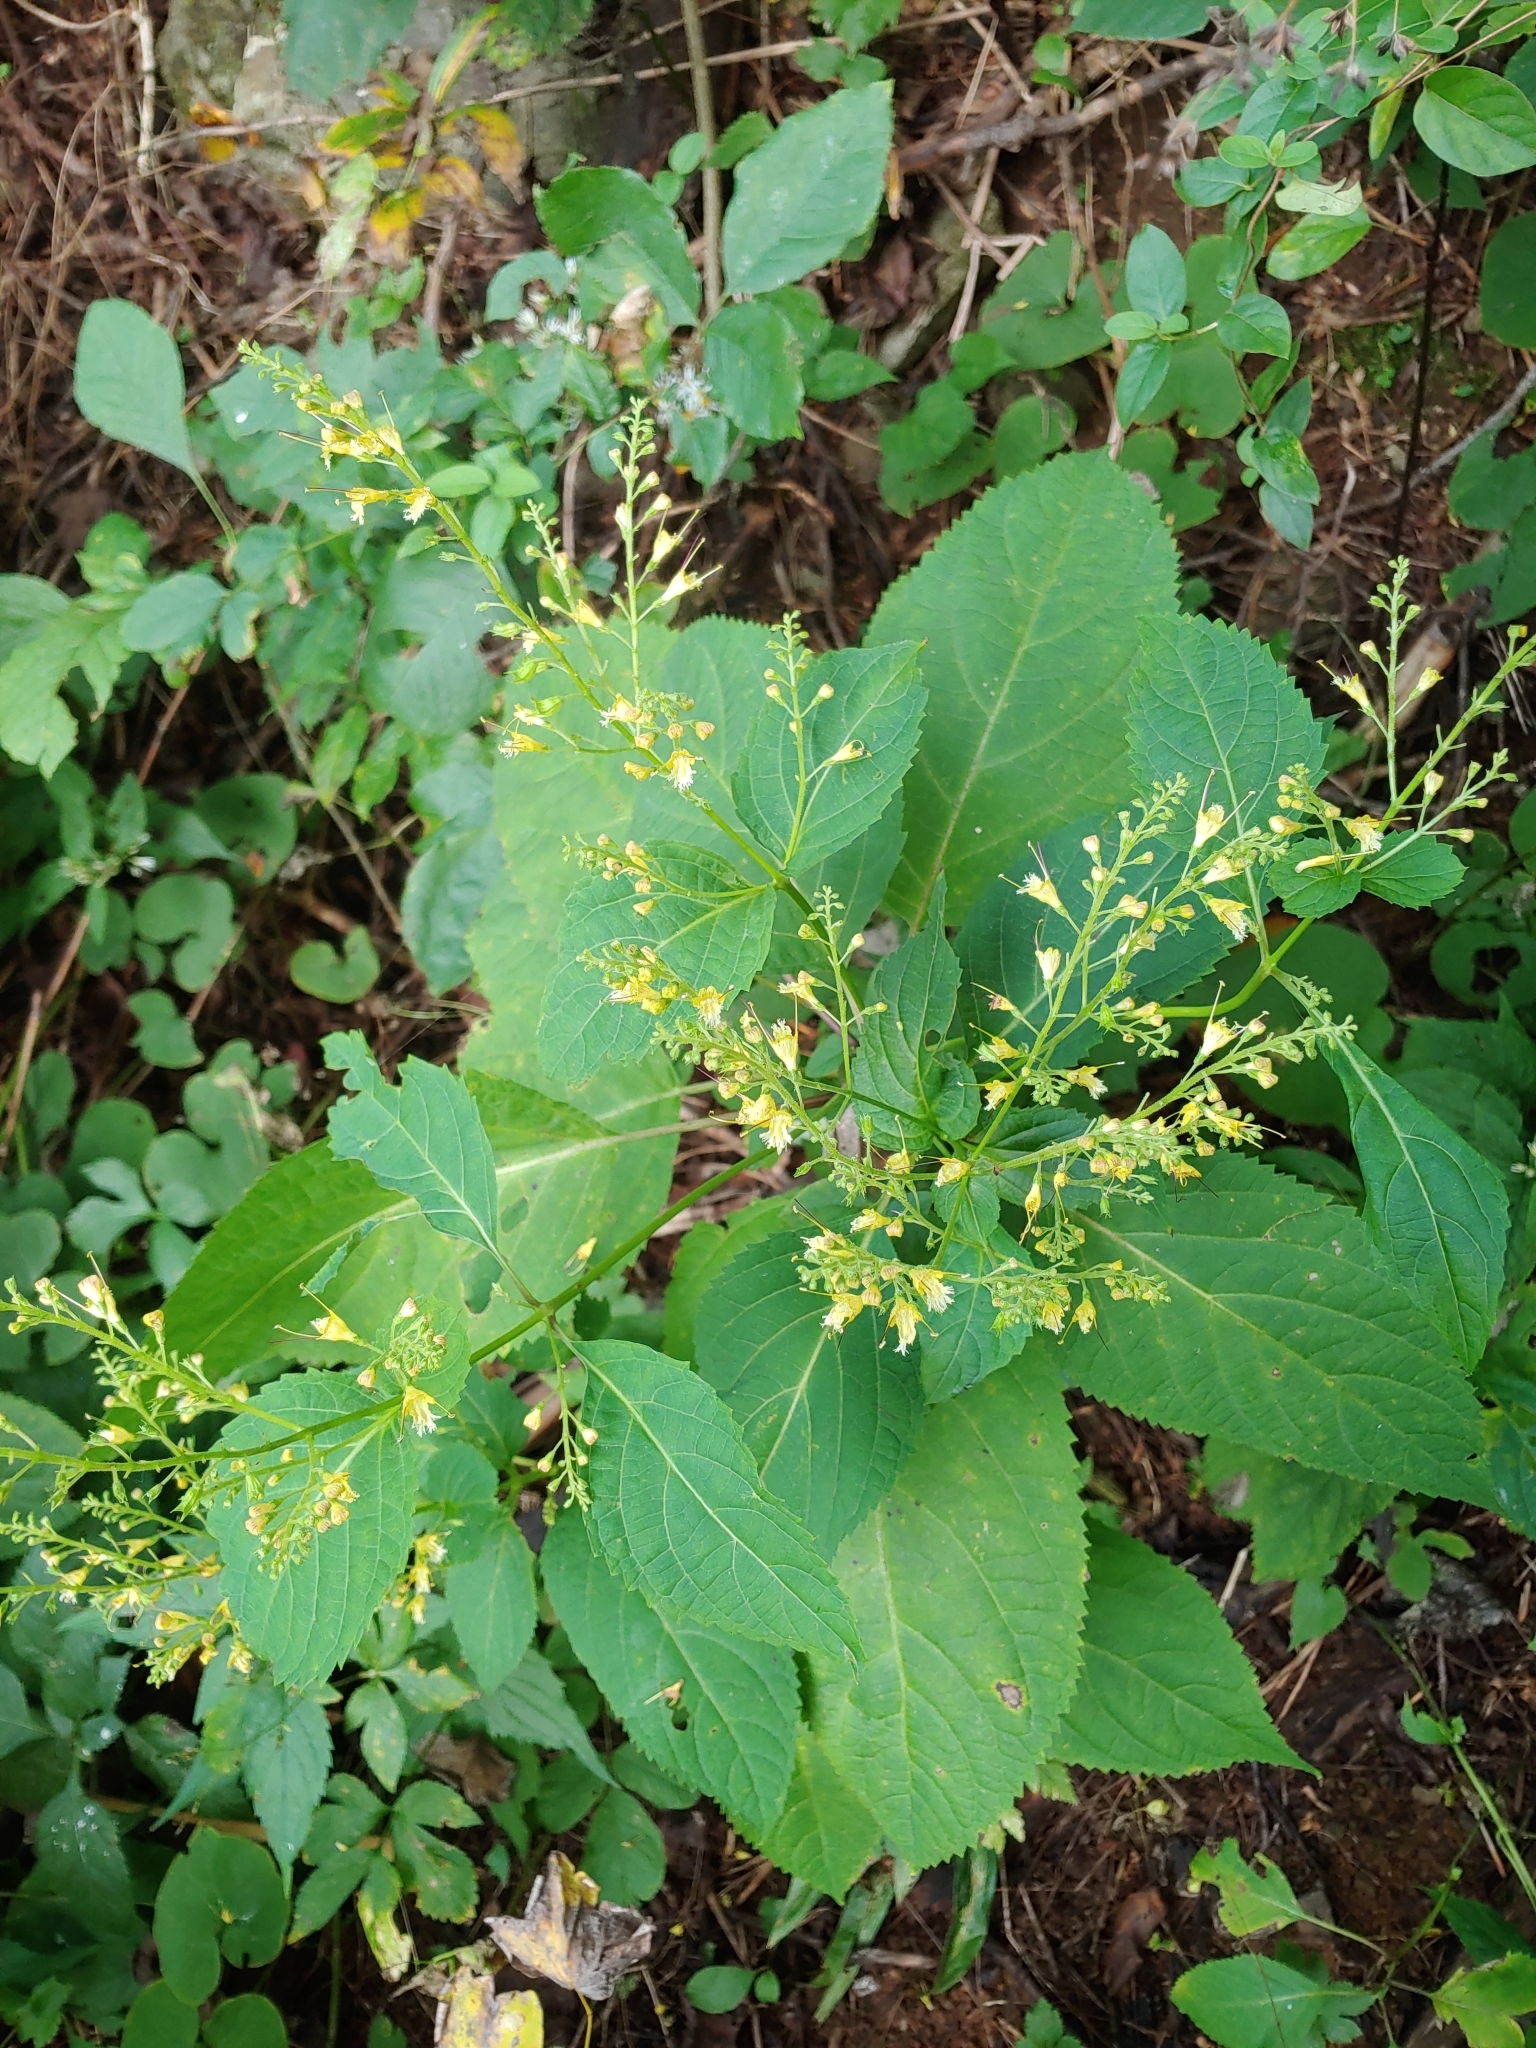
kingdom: Plantae
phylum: Tracheophyta
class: Magnoliopsida
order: Lamiales
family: Lamiaceae
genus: Collinsonia
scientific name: Collinsonia canadensis
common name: Northern horsebalm
